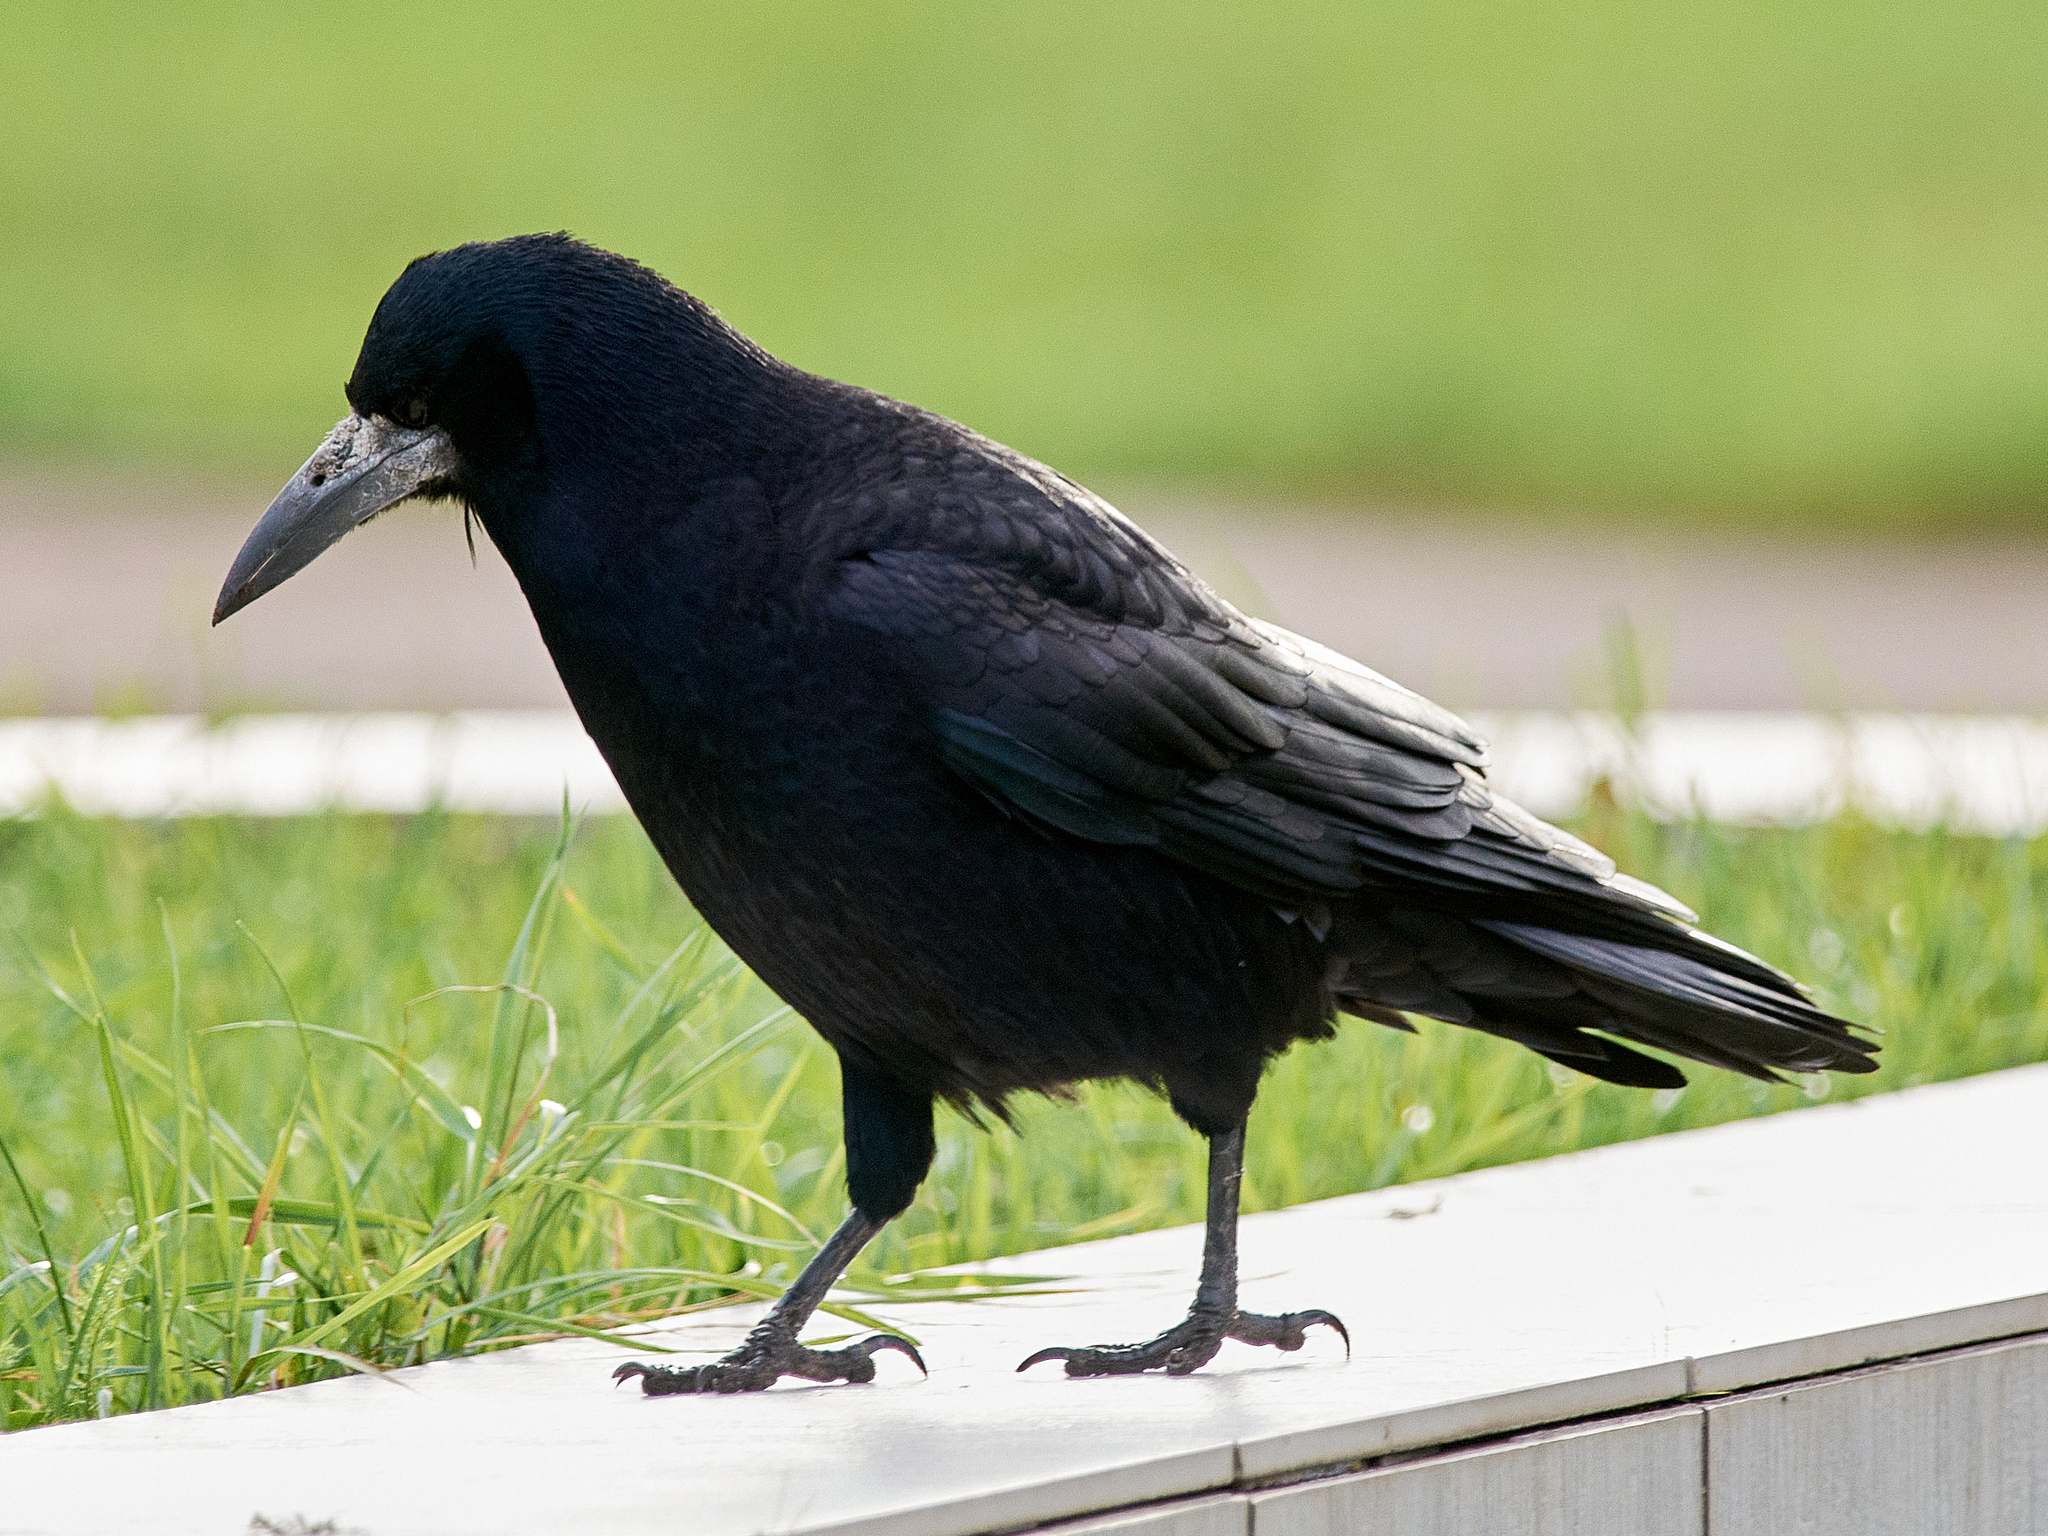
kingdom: Animalia
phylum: Chordata
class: Aves
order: Passeriformes
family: Corvidae
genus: Corvus
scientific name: Corvus frugilegus
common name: Rook
